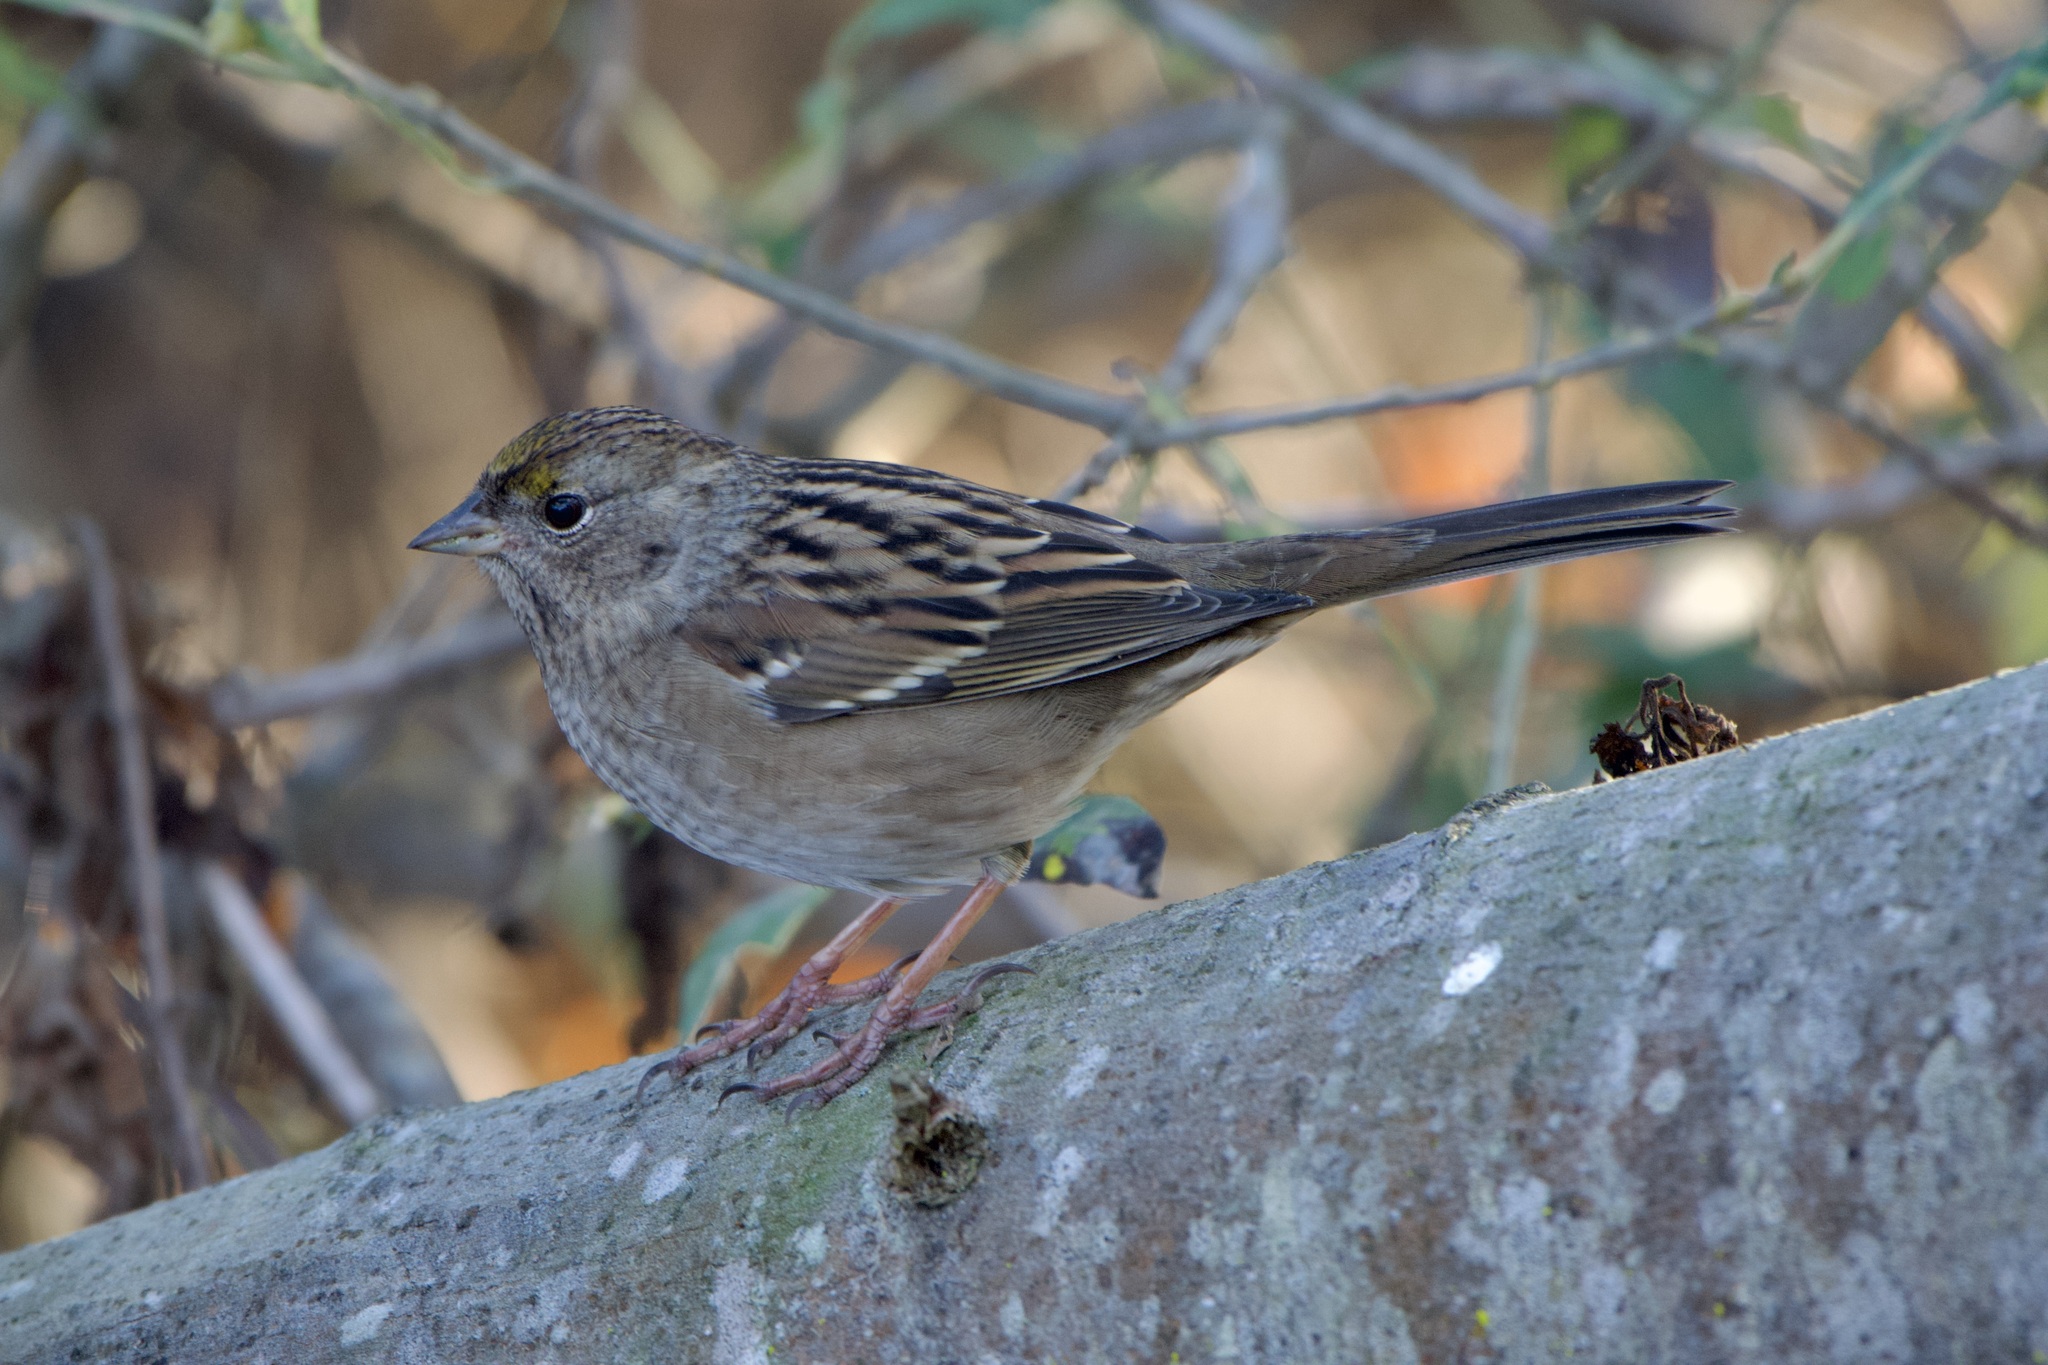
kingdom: Animalia
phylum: Chordata
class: Aves
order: Passeriformes
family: Passerellidae
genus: Zonotrichia
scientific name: Zonotrichia atricapilla
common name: Golden-crowned sparrow
